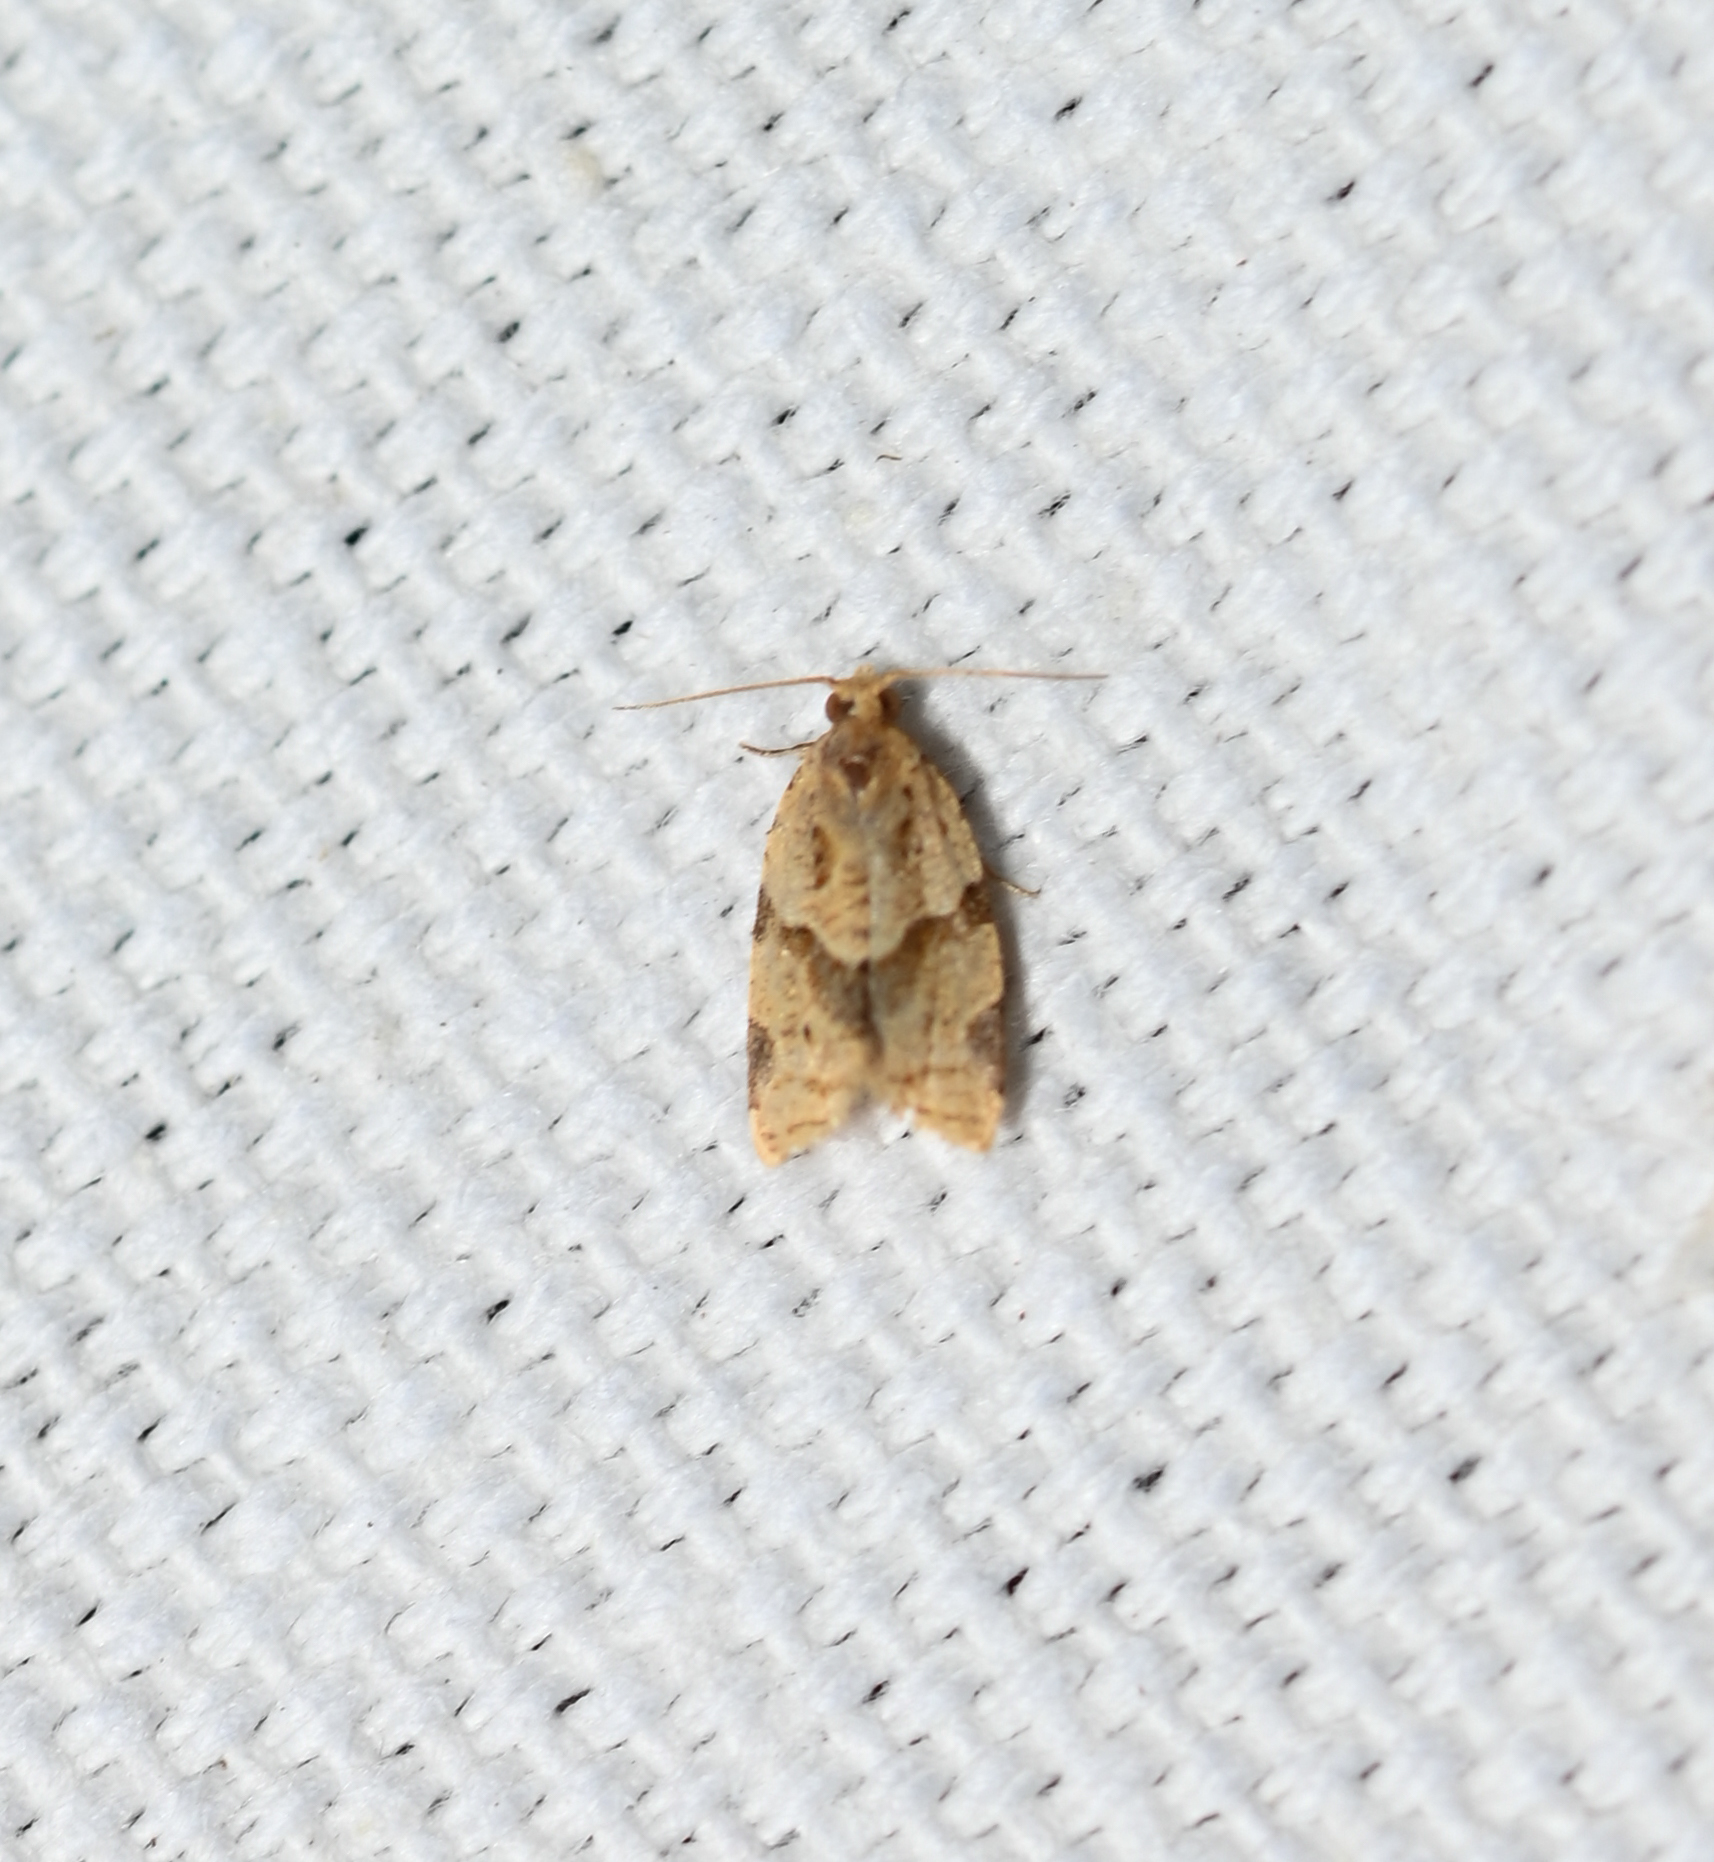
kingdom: Animalia
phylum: Arthropoda
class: Insecta
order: Lepidoptera
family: Tortricidae
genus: Clepsis
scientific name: Clepsis peritana
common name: Garden tortrix
